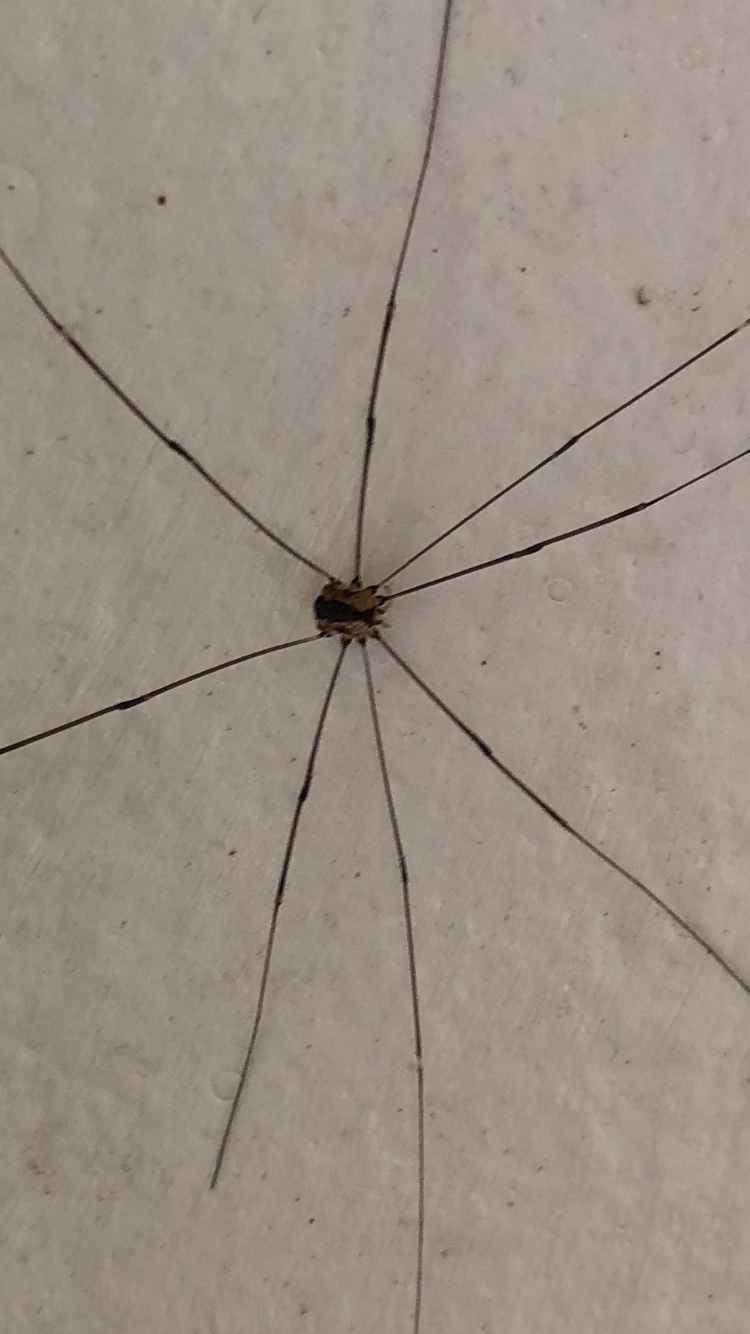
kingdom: Animalia
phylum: Arthropoda
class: Arachnida
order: Opiliones
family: Sclerosomatidae
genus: Leiobunum
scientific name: Leiobunum rotundum
